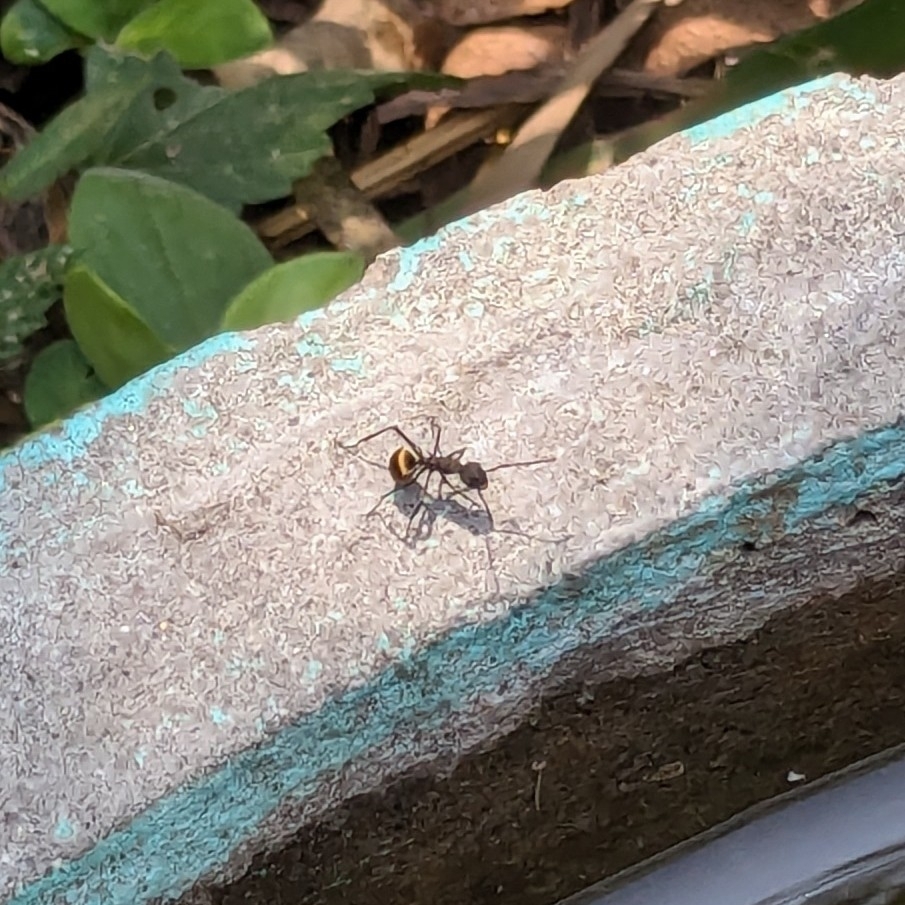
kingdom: Animalia
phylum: Arthropoda
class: Insecta
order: Hymenoptera
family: Formicidae
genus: Polyrhachis
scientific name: Polyrhachis dives
